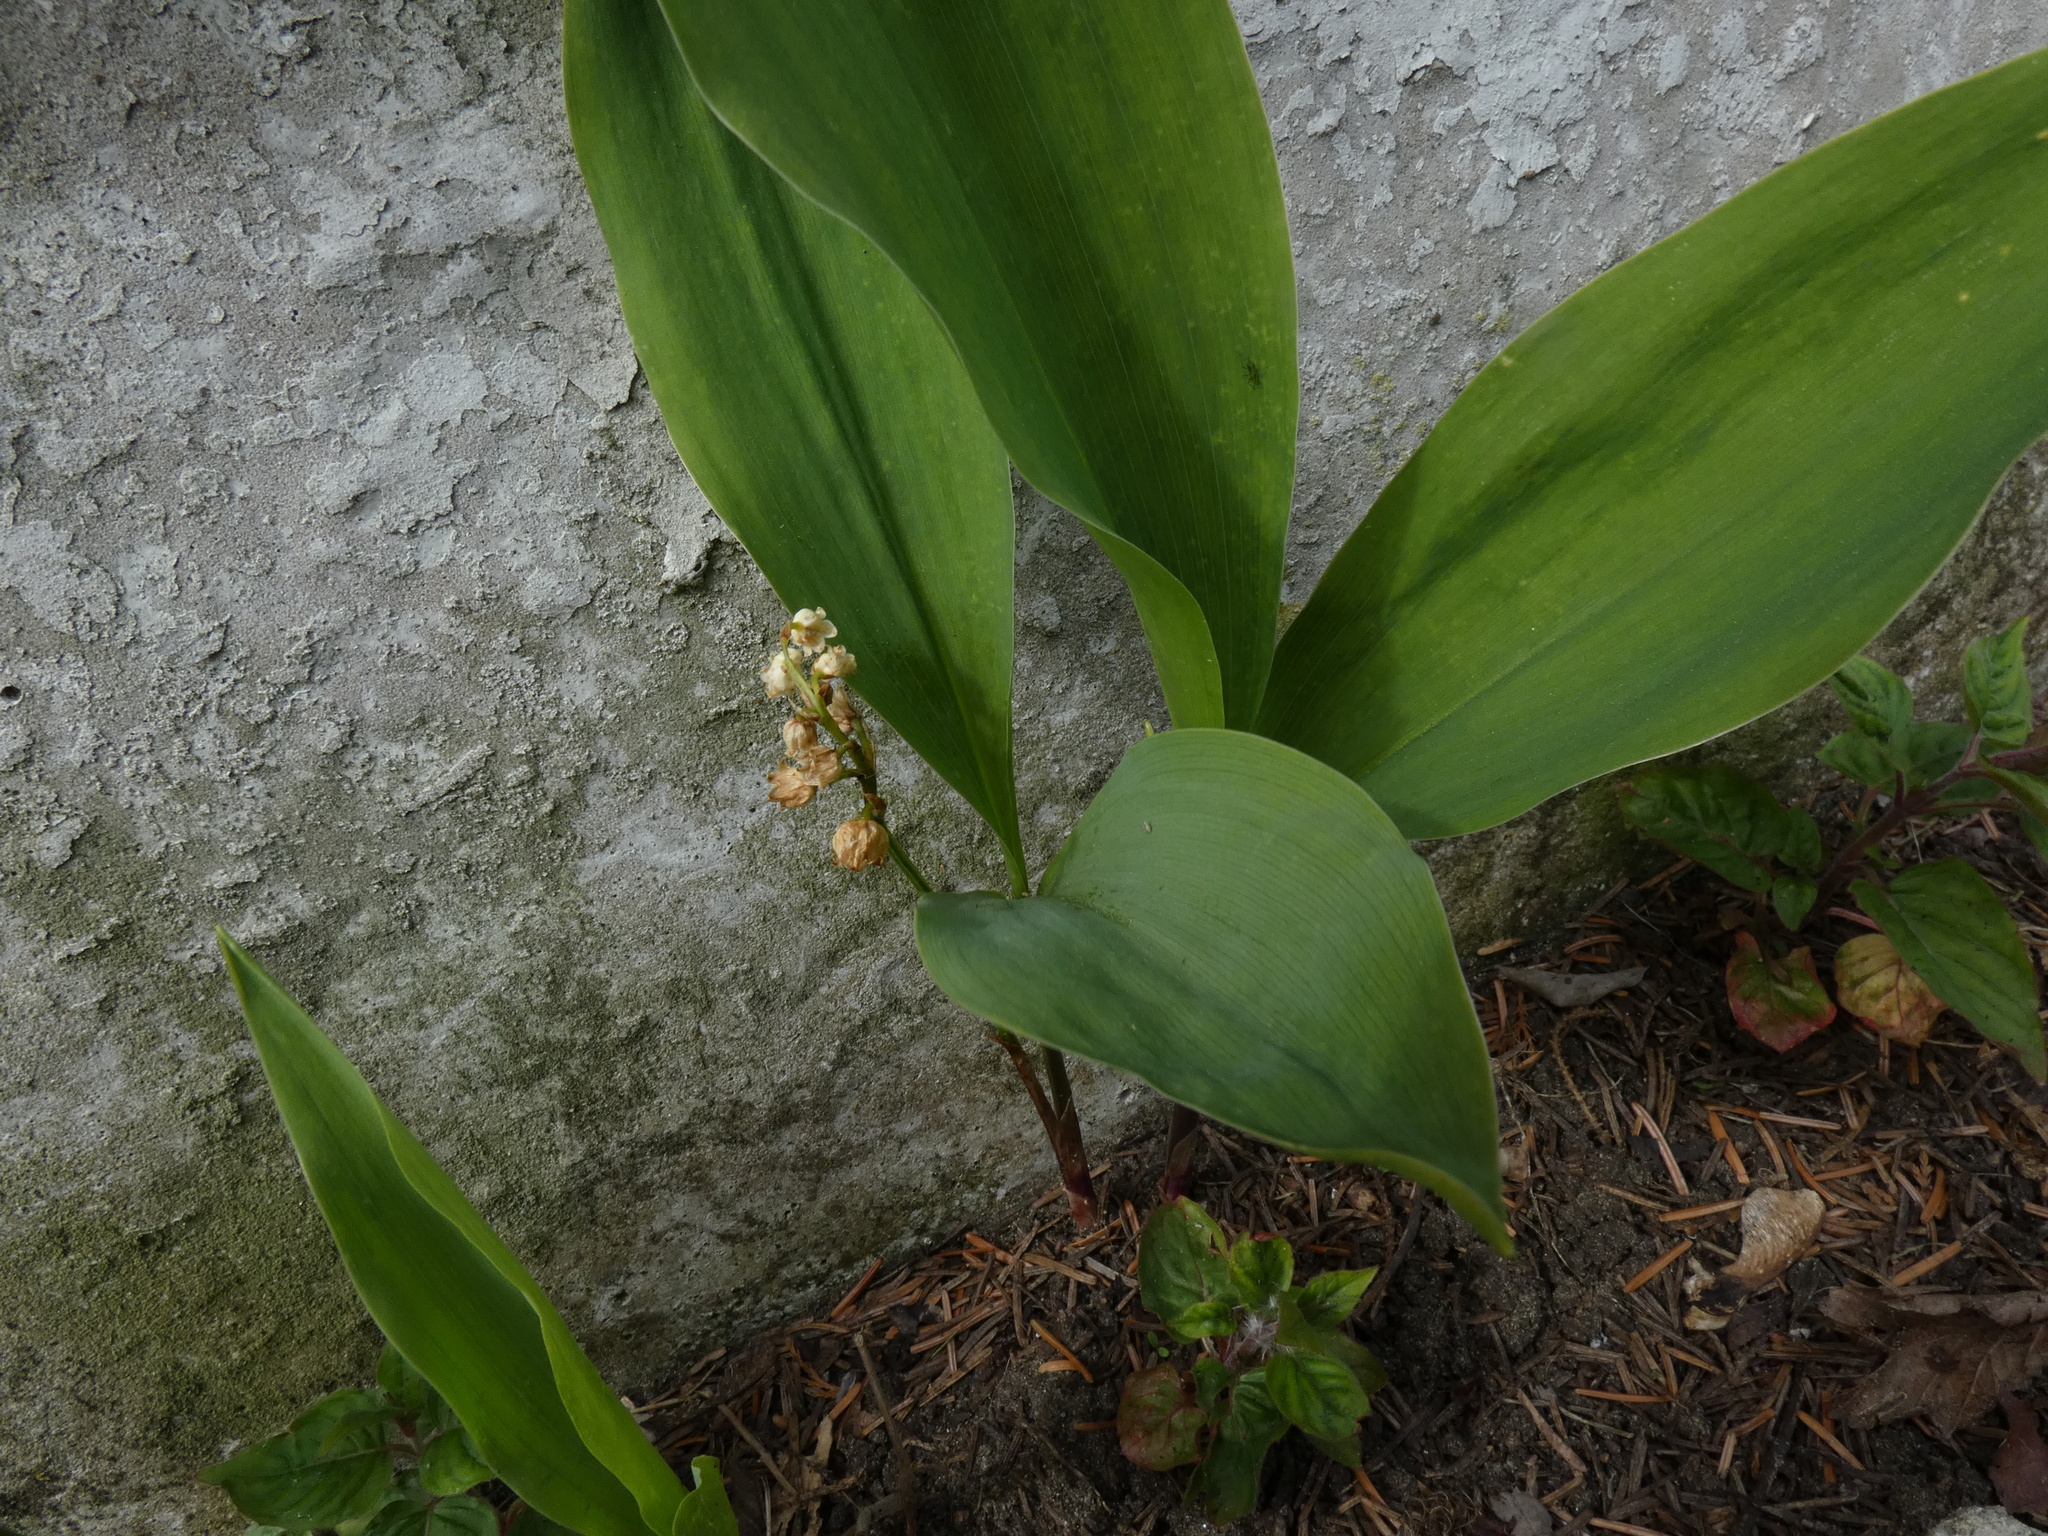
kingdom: Plantae
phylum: Tracheophyta
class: Liliopsida
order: Asparagales
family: Asparagaceae
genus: Convallaria
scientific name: Convallaria majalis
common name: Lily-of-the-valley
